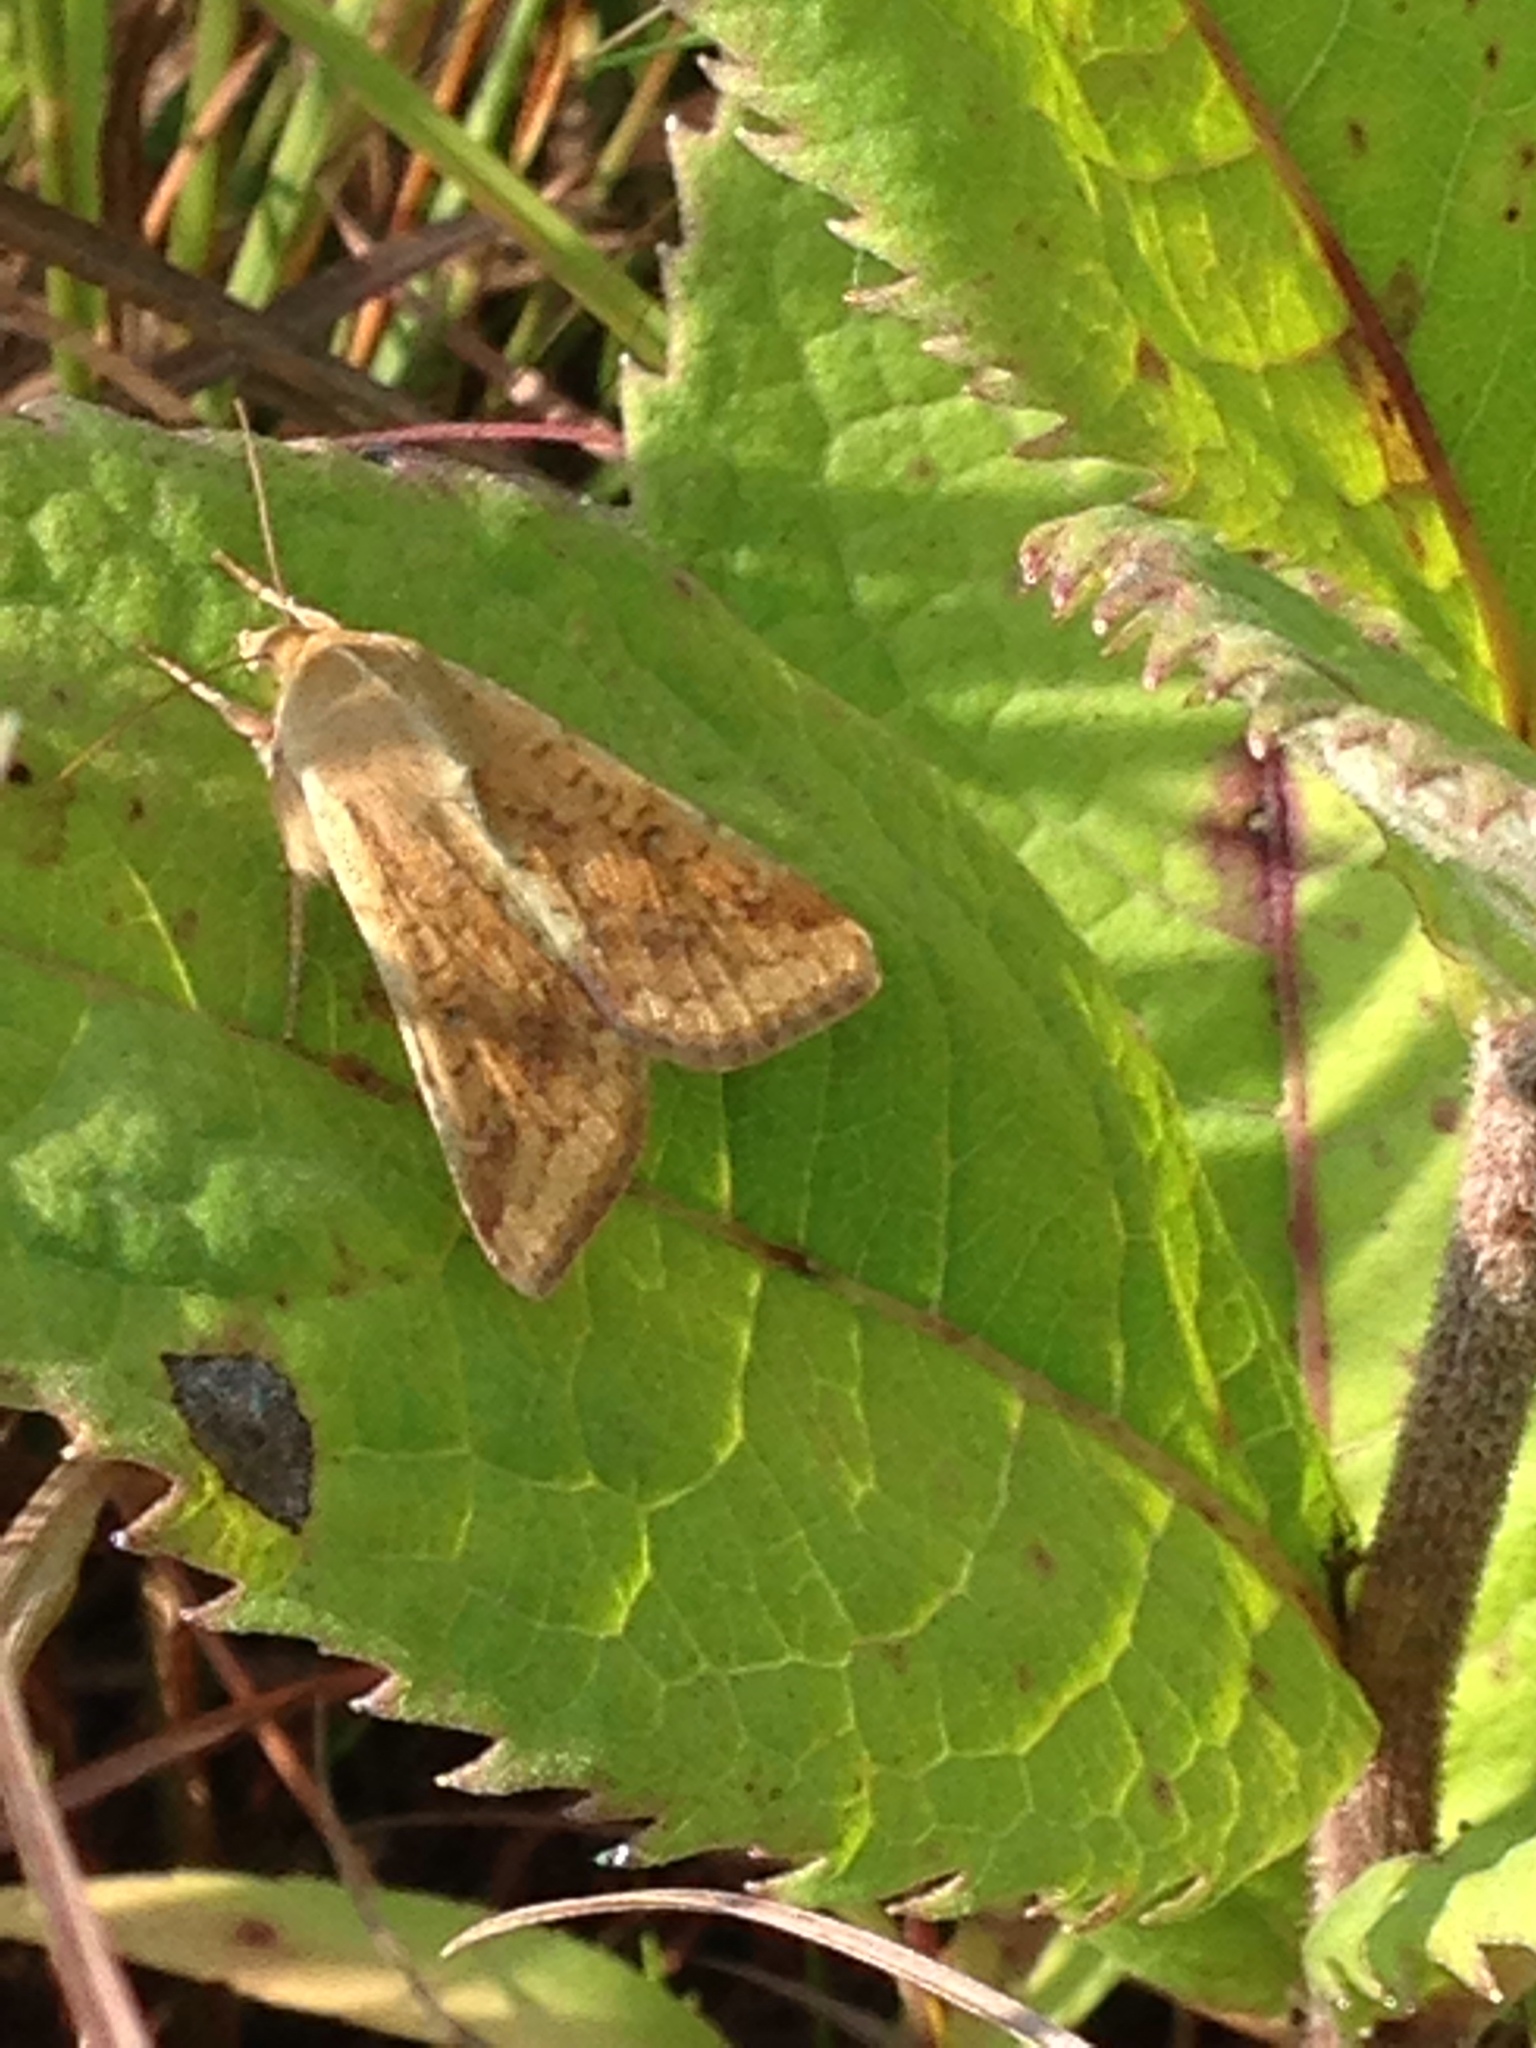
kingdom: Animalia
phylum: Arthropoda
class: Insecta
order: Lepidoptera
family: Noctuidae
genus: Helicoverpa
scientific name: Helicoverpa zea
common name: Bollworm
